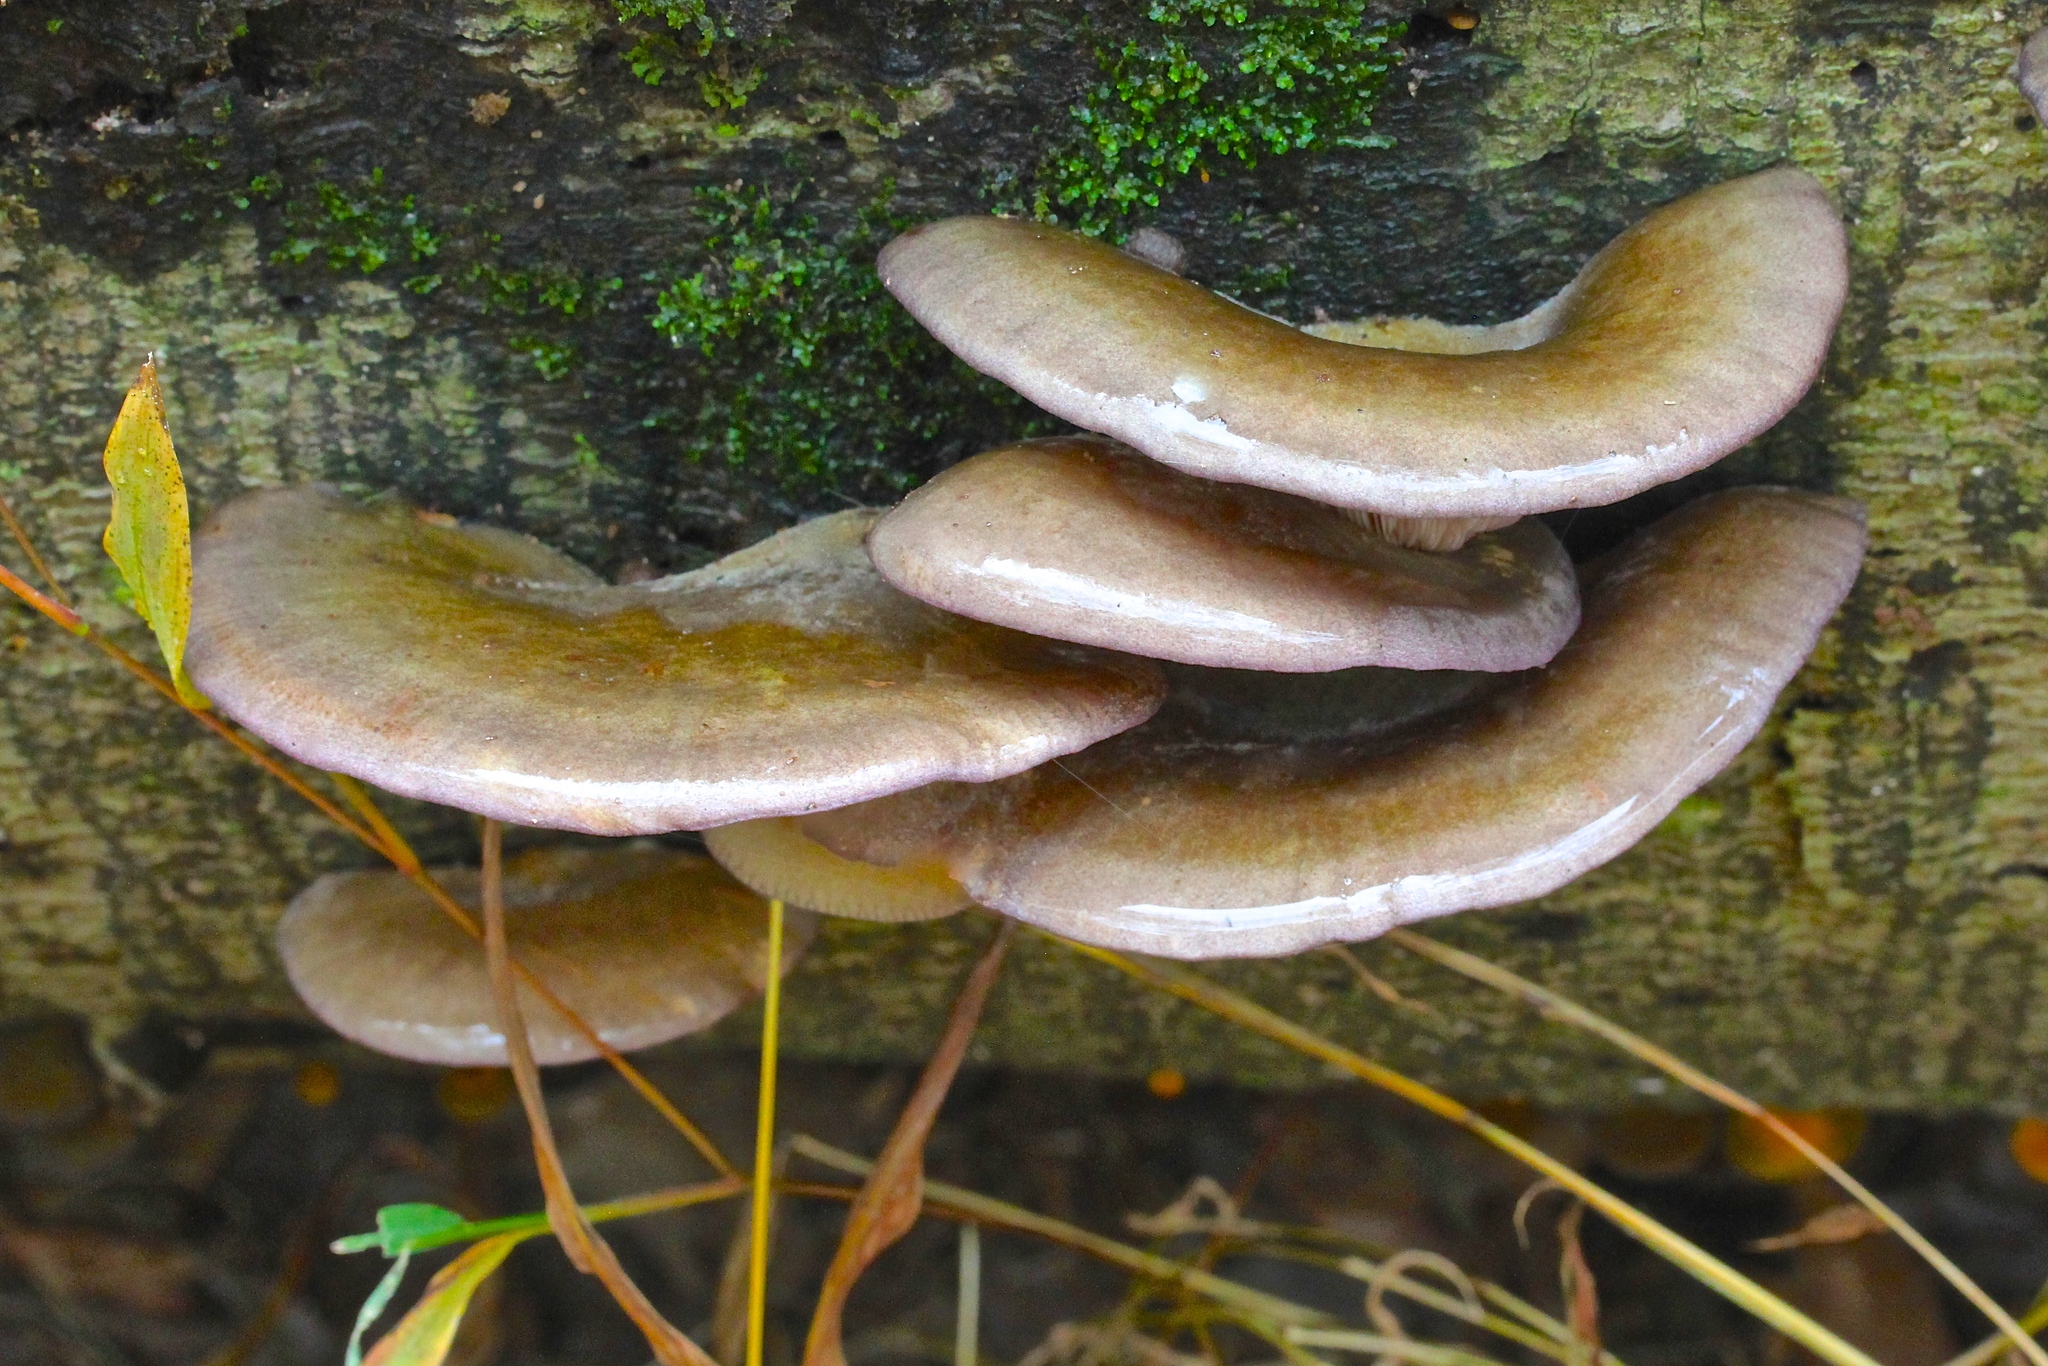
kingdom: Fungi
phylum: Basidiomycota
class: Agaricomycetes
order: Agaricales
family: Sarcomyxaceae
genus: Sarcomyxa
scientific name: Sarcomyxa serotina
